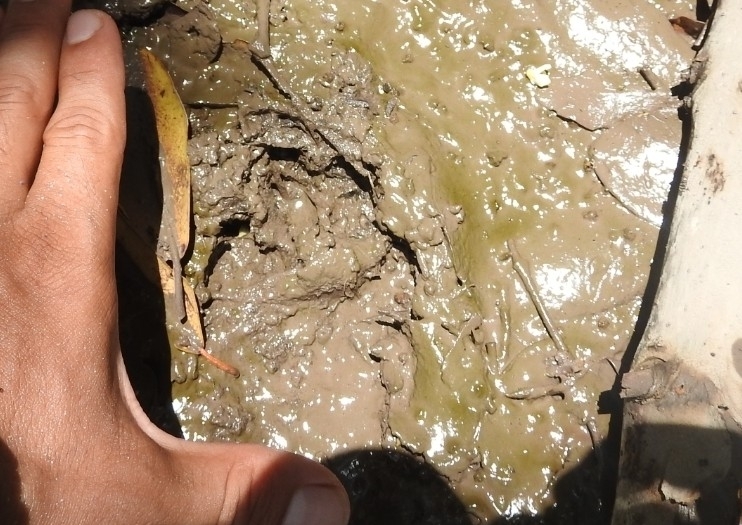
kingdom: Animalia
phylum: Chordata
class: Mammalia
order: Carnivora
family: Felidae
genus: Leopardus
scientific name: Leopardus pardalis
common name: Ocelot
